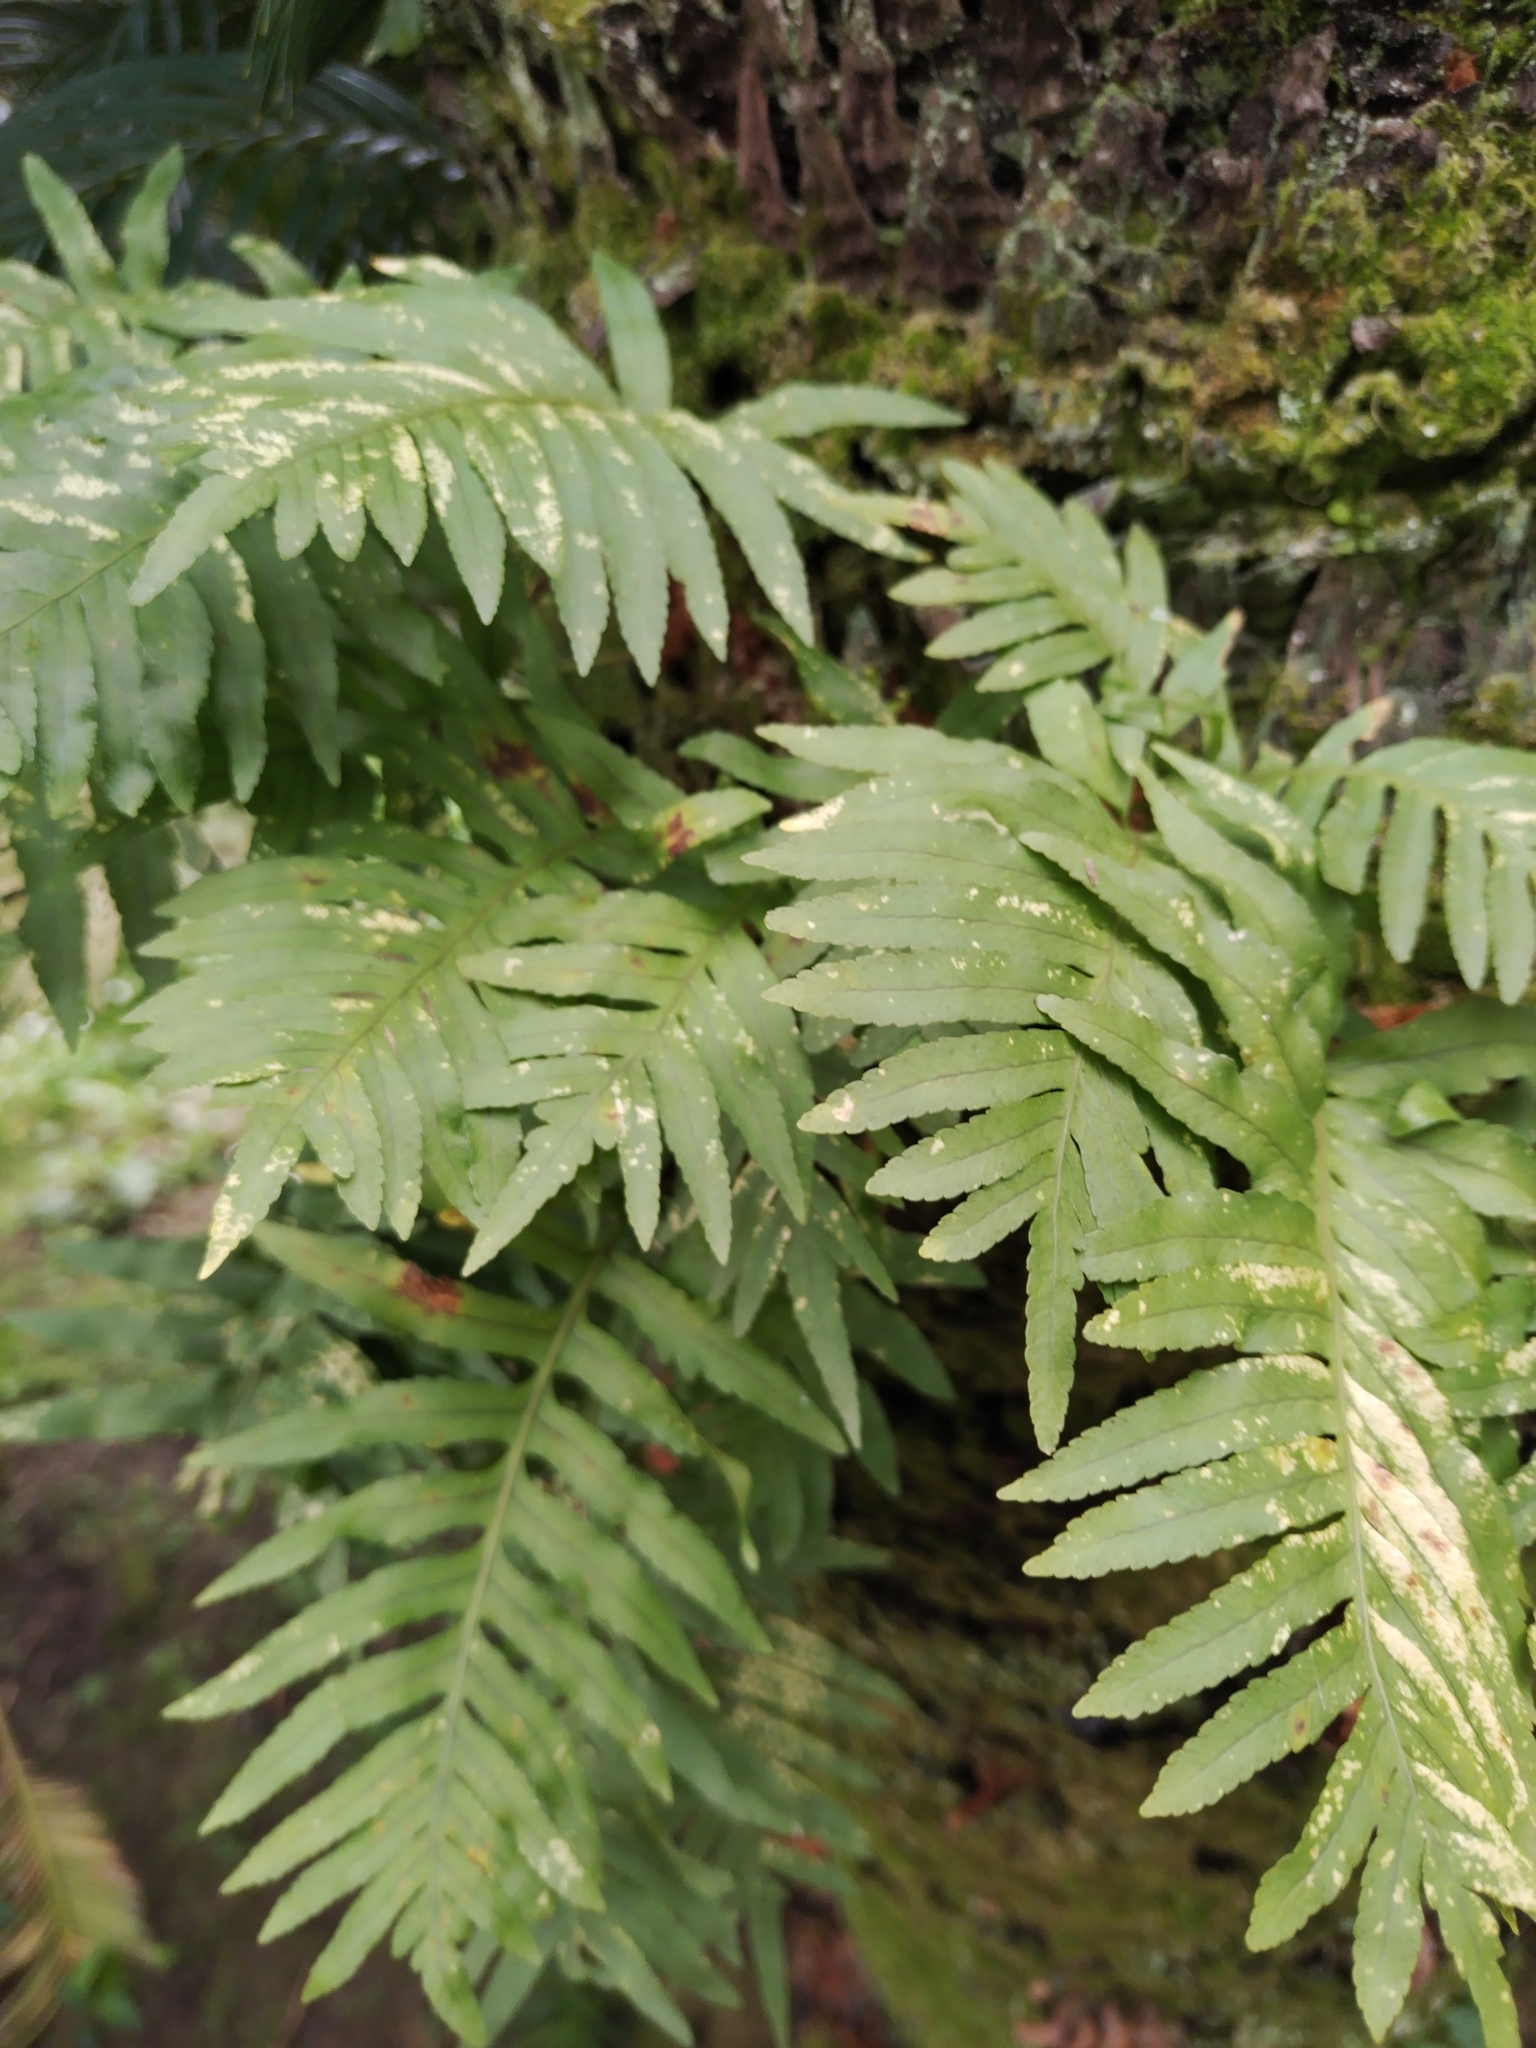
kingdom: Plantae
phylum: Tracheophyta
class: Polypodiopsida
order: Polypodiales
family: Polypodiaceae
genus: Polypodium
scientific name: Polypodium cambricum
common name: Southern polypody
